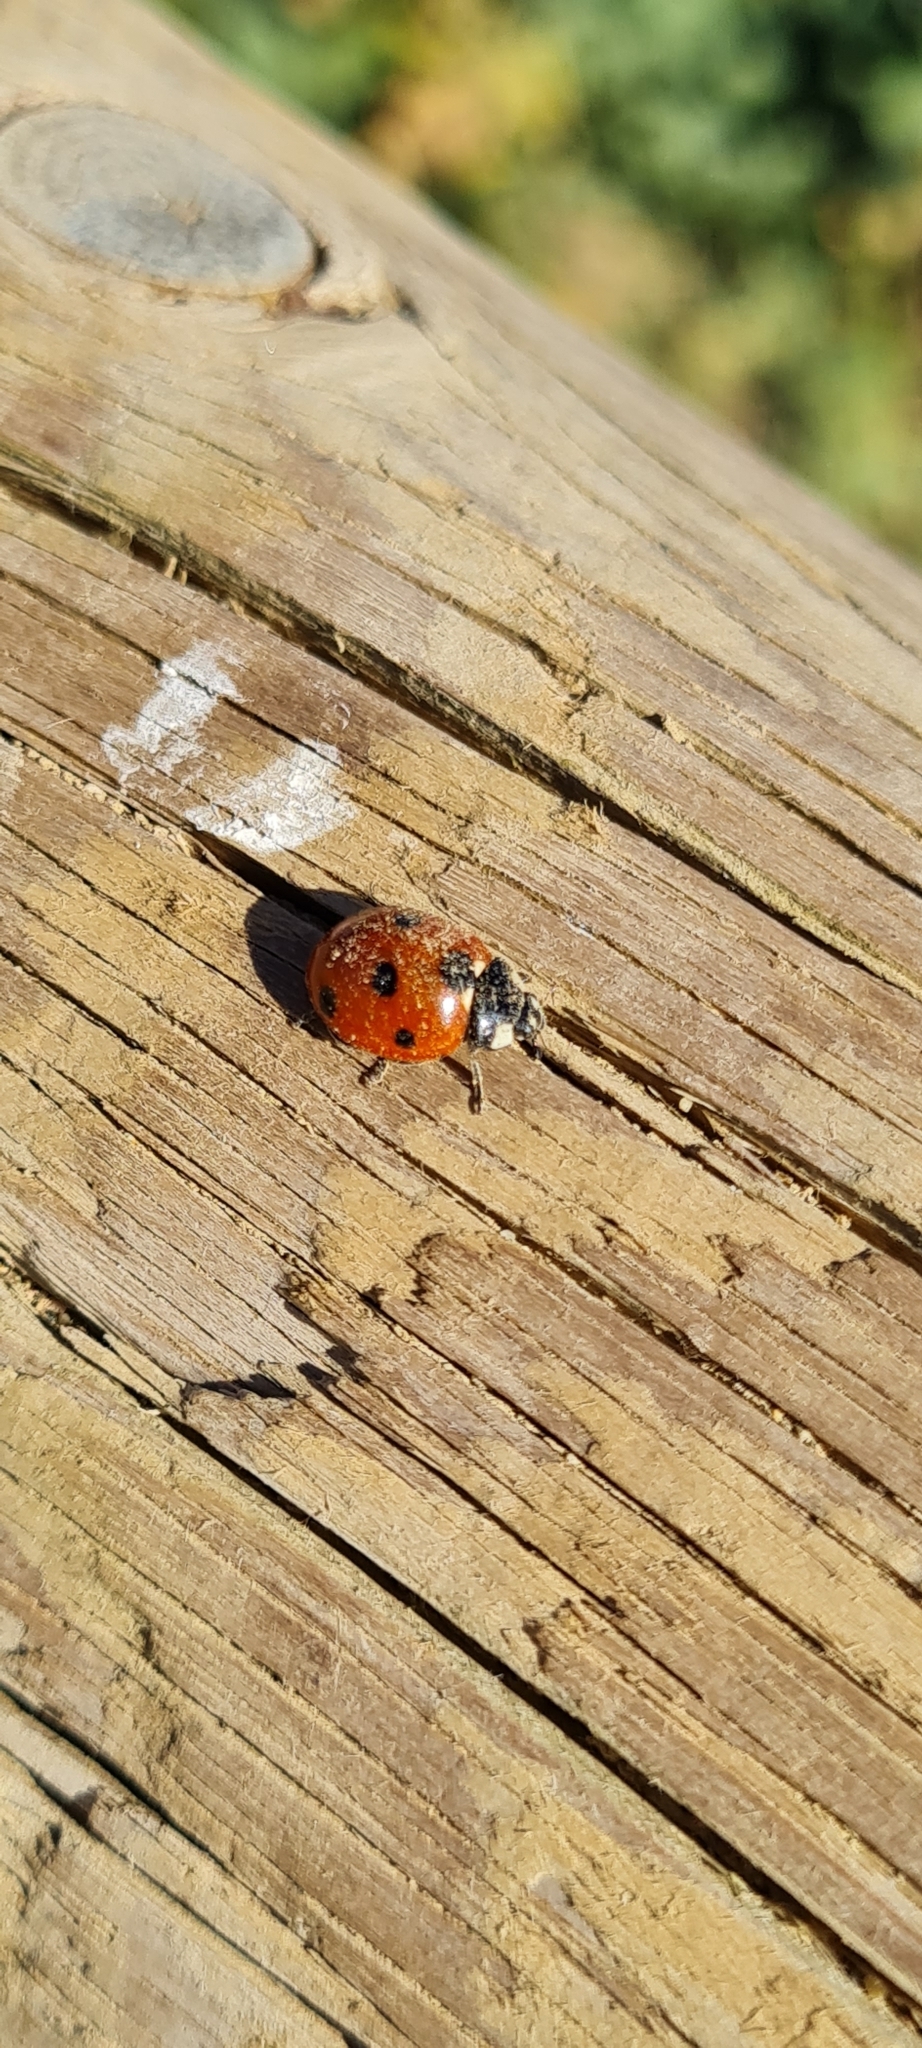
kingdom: Animalia
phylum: Arthropoda
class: Insecta
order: Coleoptera
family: Coccinellidae
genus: Coccinella
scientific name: Coccinella septempunctata
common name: Sevenspotted lady beetle
